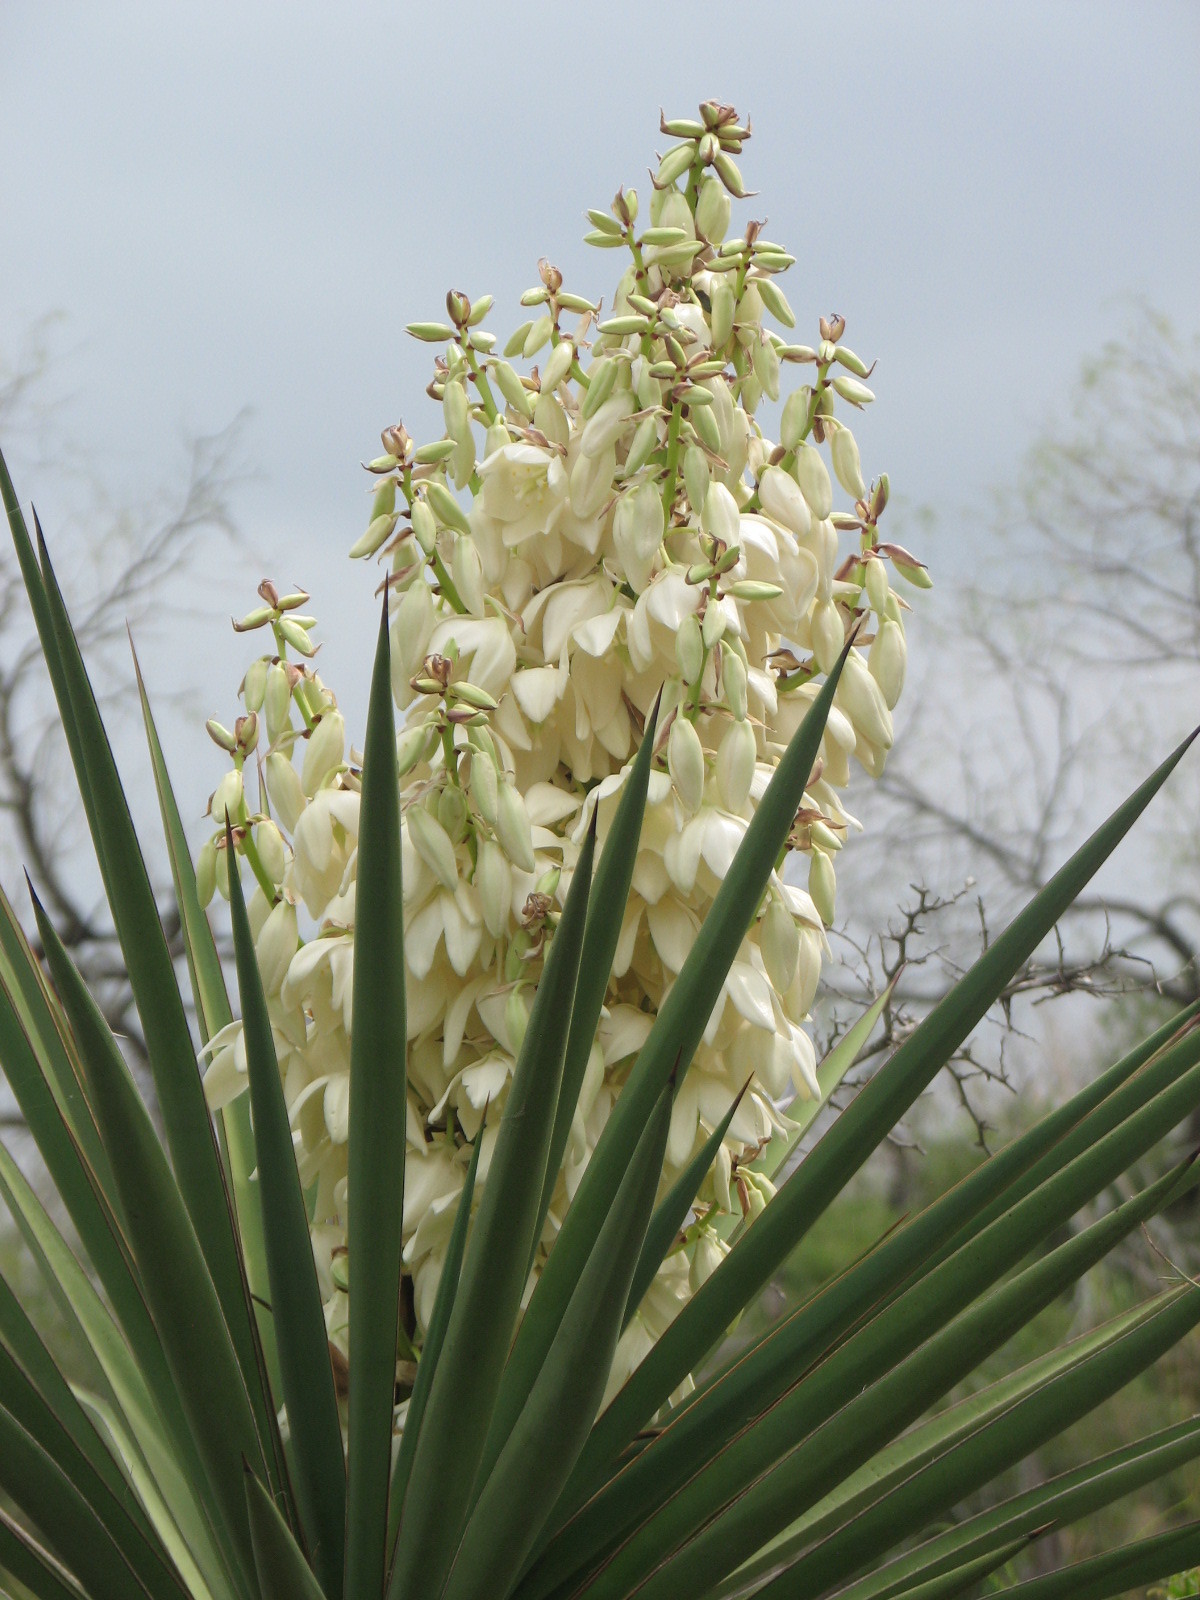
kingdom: Plantae
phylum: Tracheophyta
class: Liliopsida
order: Asparagales
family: Asparagaceae
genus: Yucca
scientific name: Yucca treculiana
